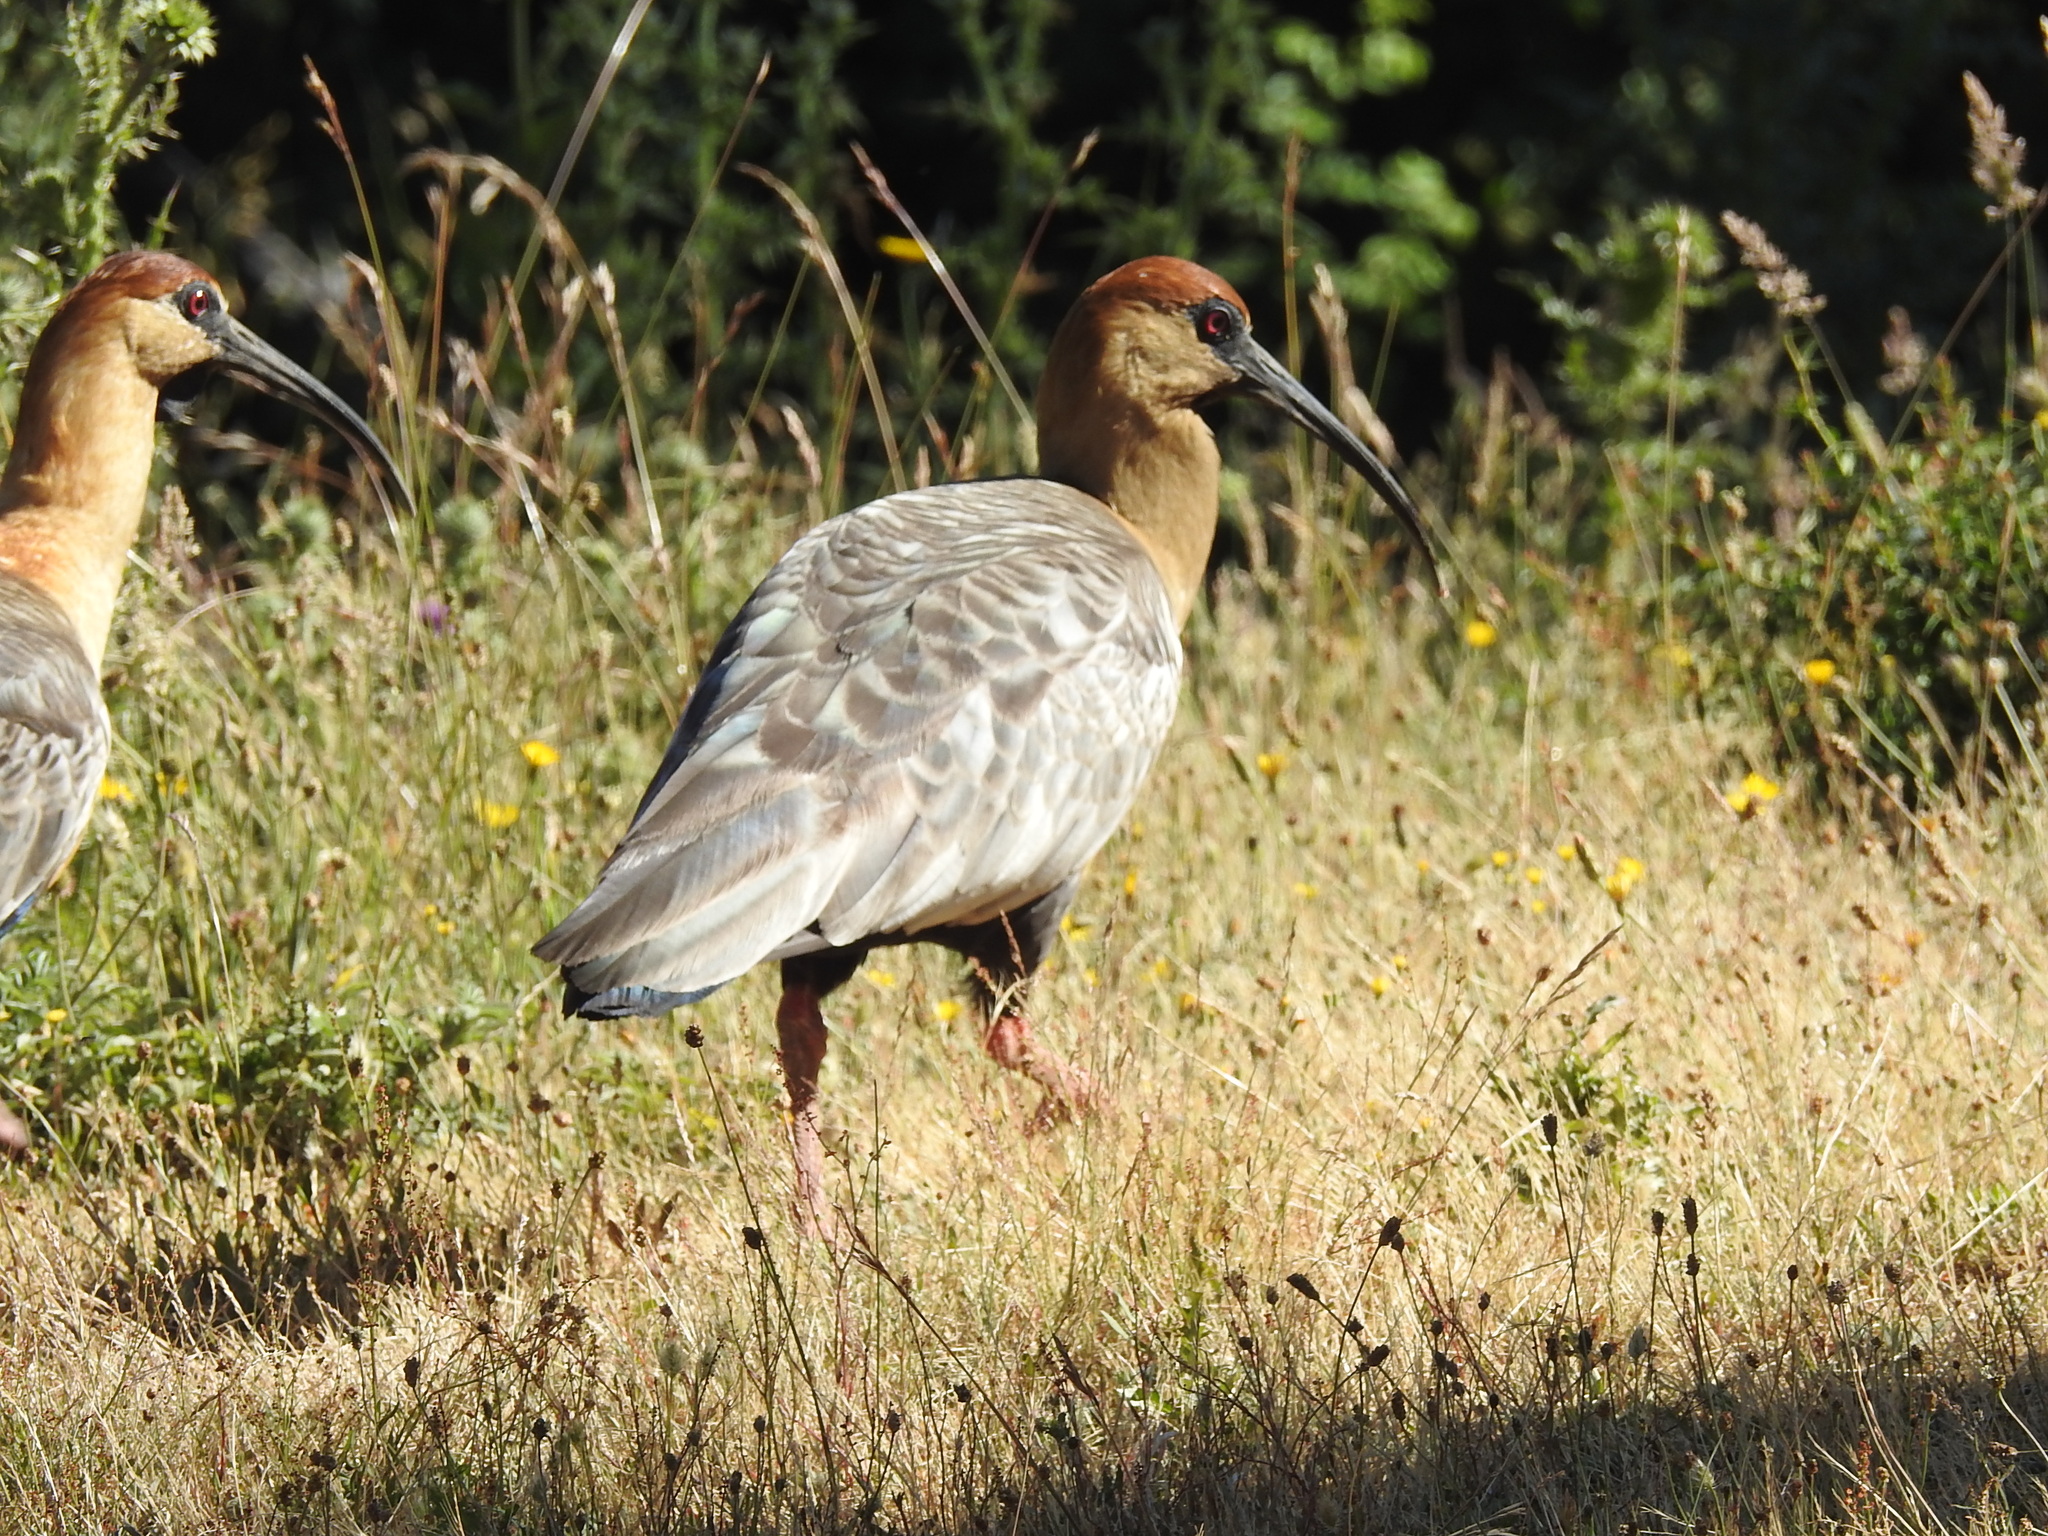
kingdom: Animalia
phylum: Chordata
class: Aves
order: Pelecaniformes
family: Threskiornithidae
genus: Theristicus
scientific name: Theristicus melanopis
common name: Black-faced ibis
